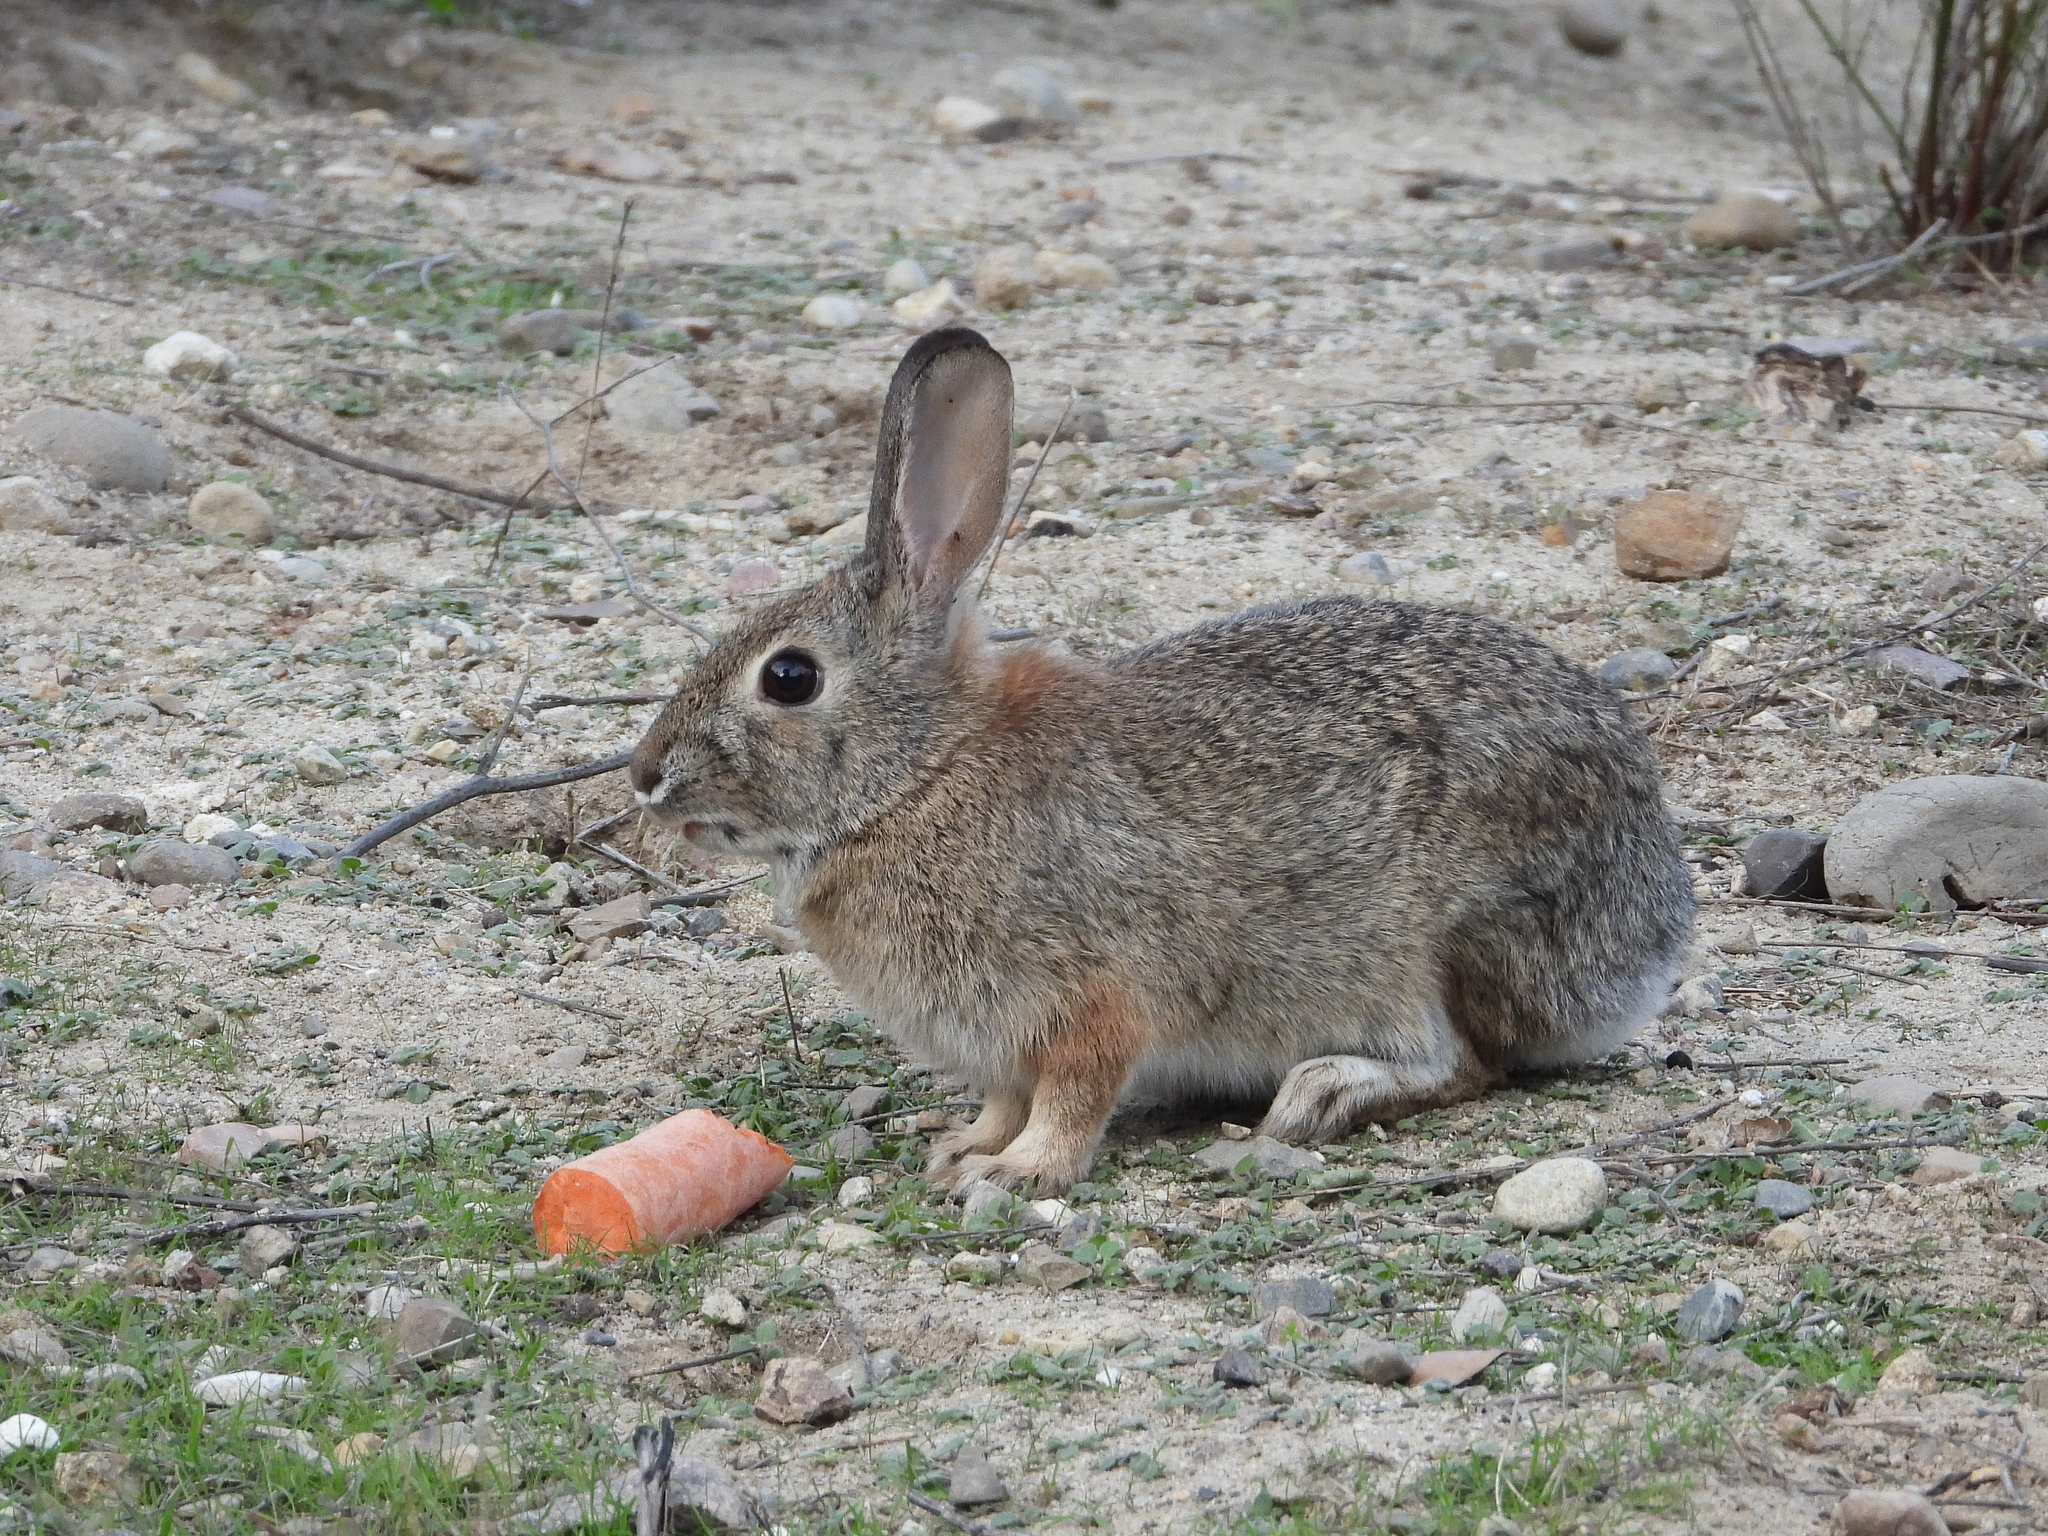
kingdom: Animalia
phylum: Chordata
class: Mammalia
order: Lagomorpha
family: Leporidae
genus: Sylvilagus
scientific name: Sylvilagus audubonii
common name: Desert cottontail
